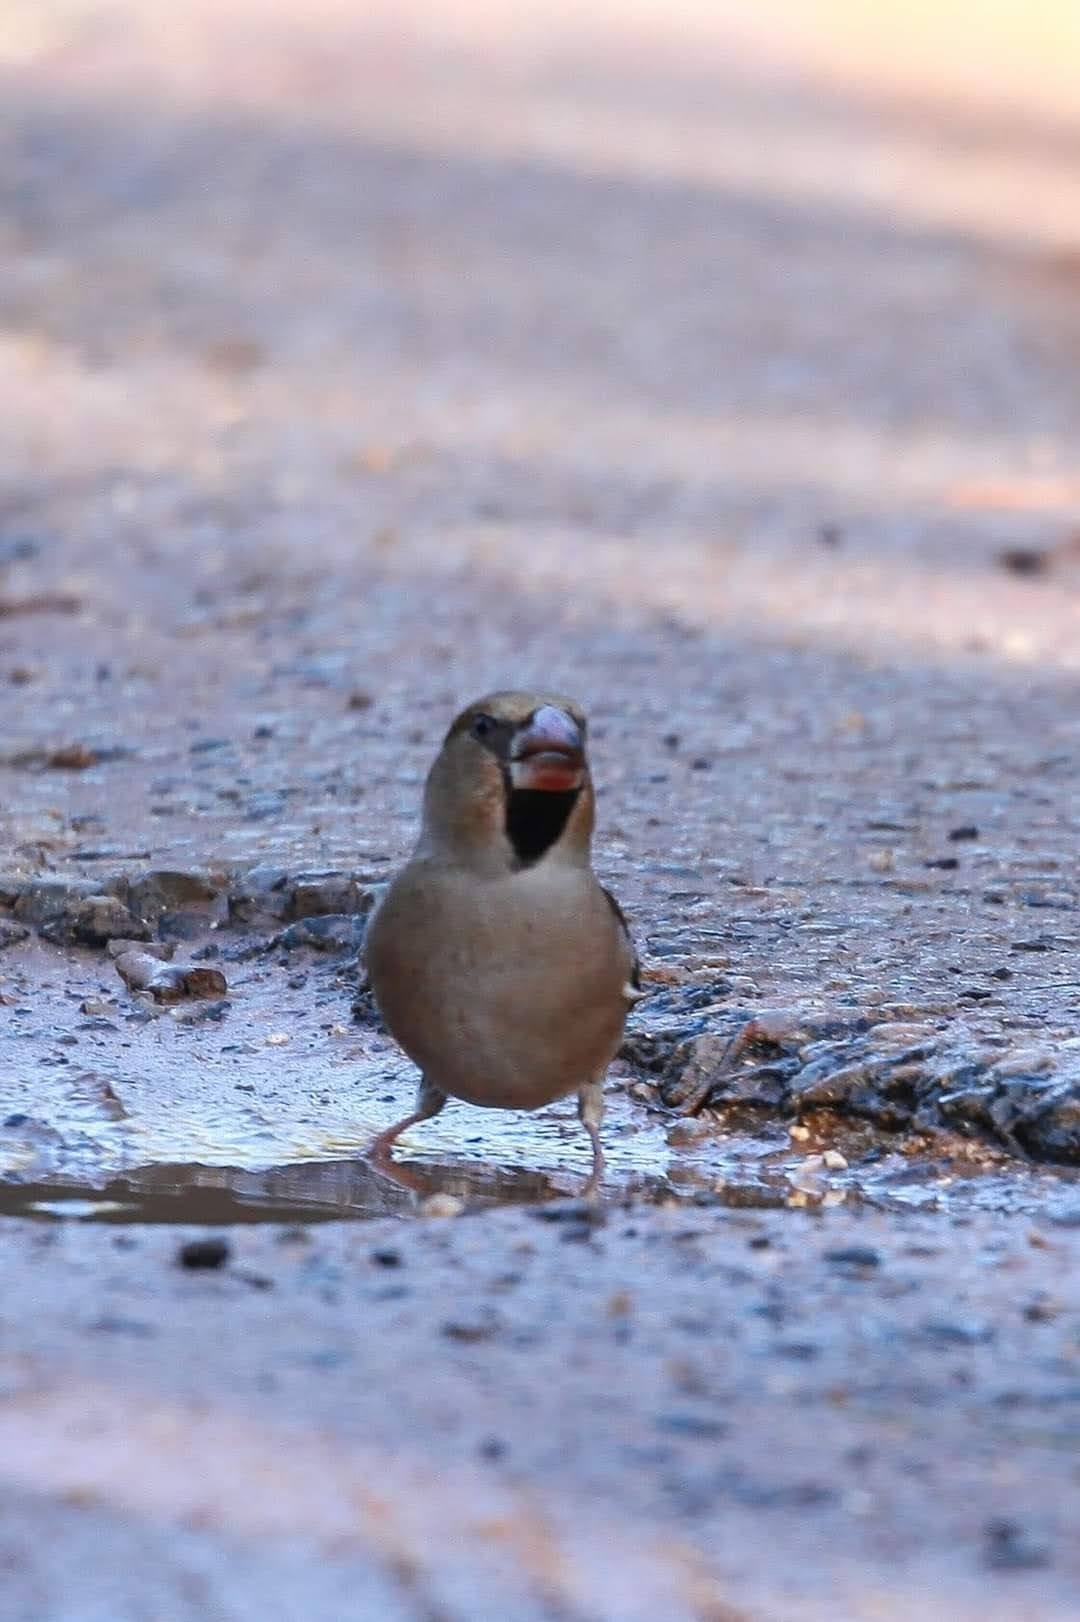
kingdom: Animalia
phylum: Chordata
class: Aves
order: Passeriformes
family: Fringillidae
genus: Coccothraustes
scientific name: Coccothraustes coccothraustes
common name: Hawfinch
